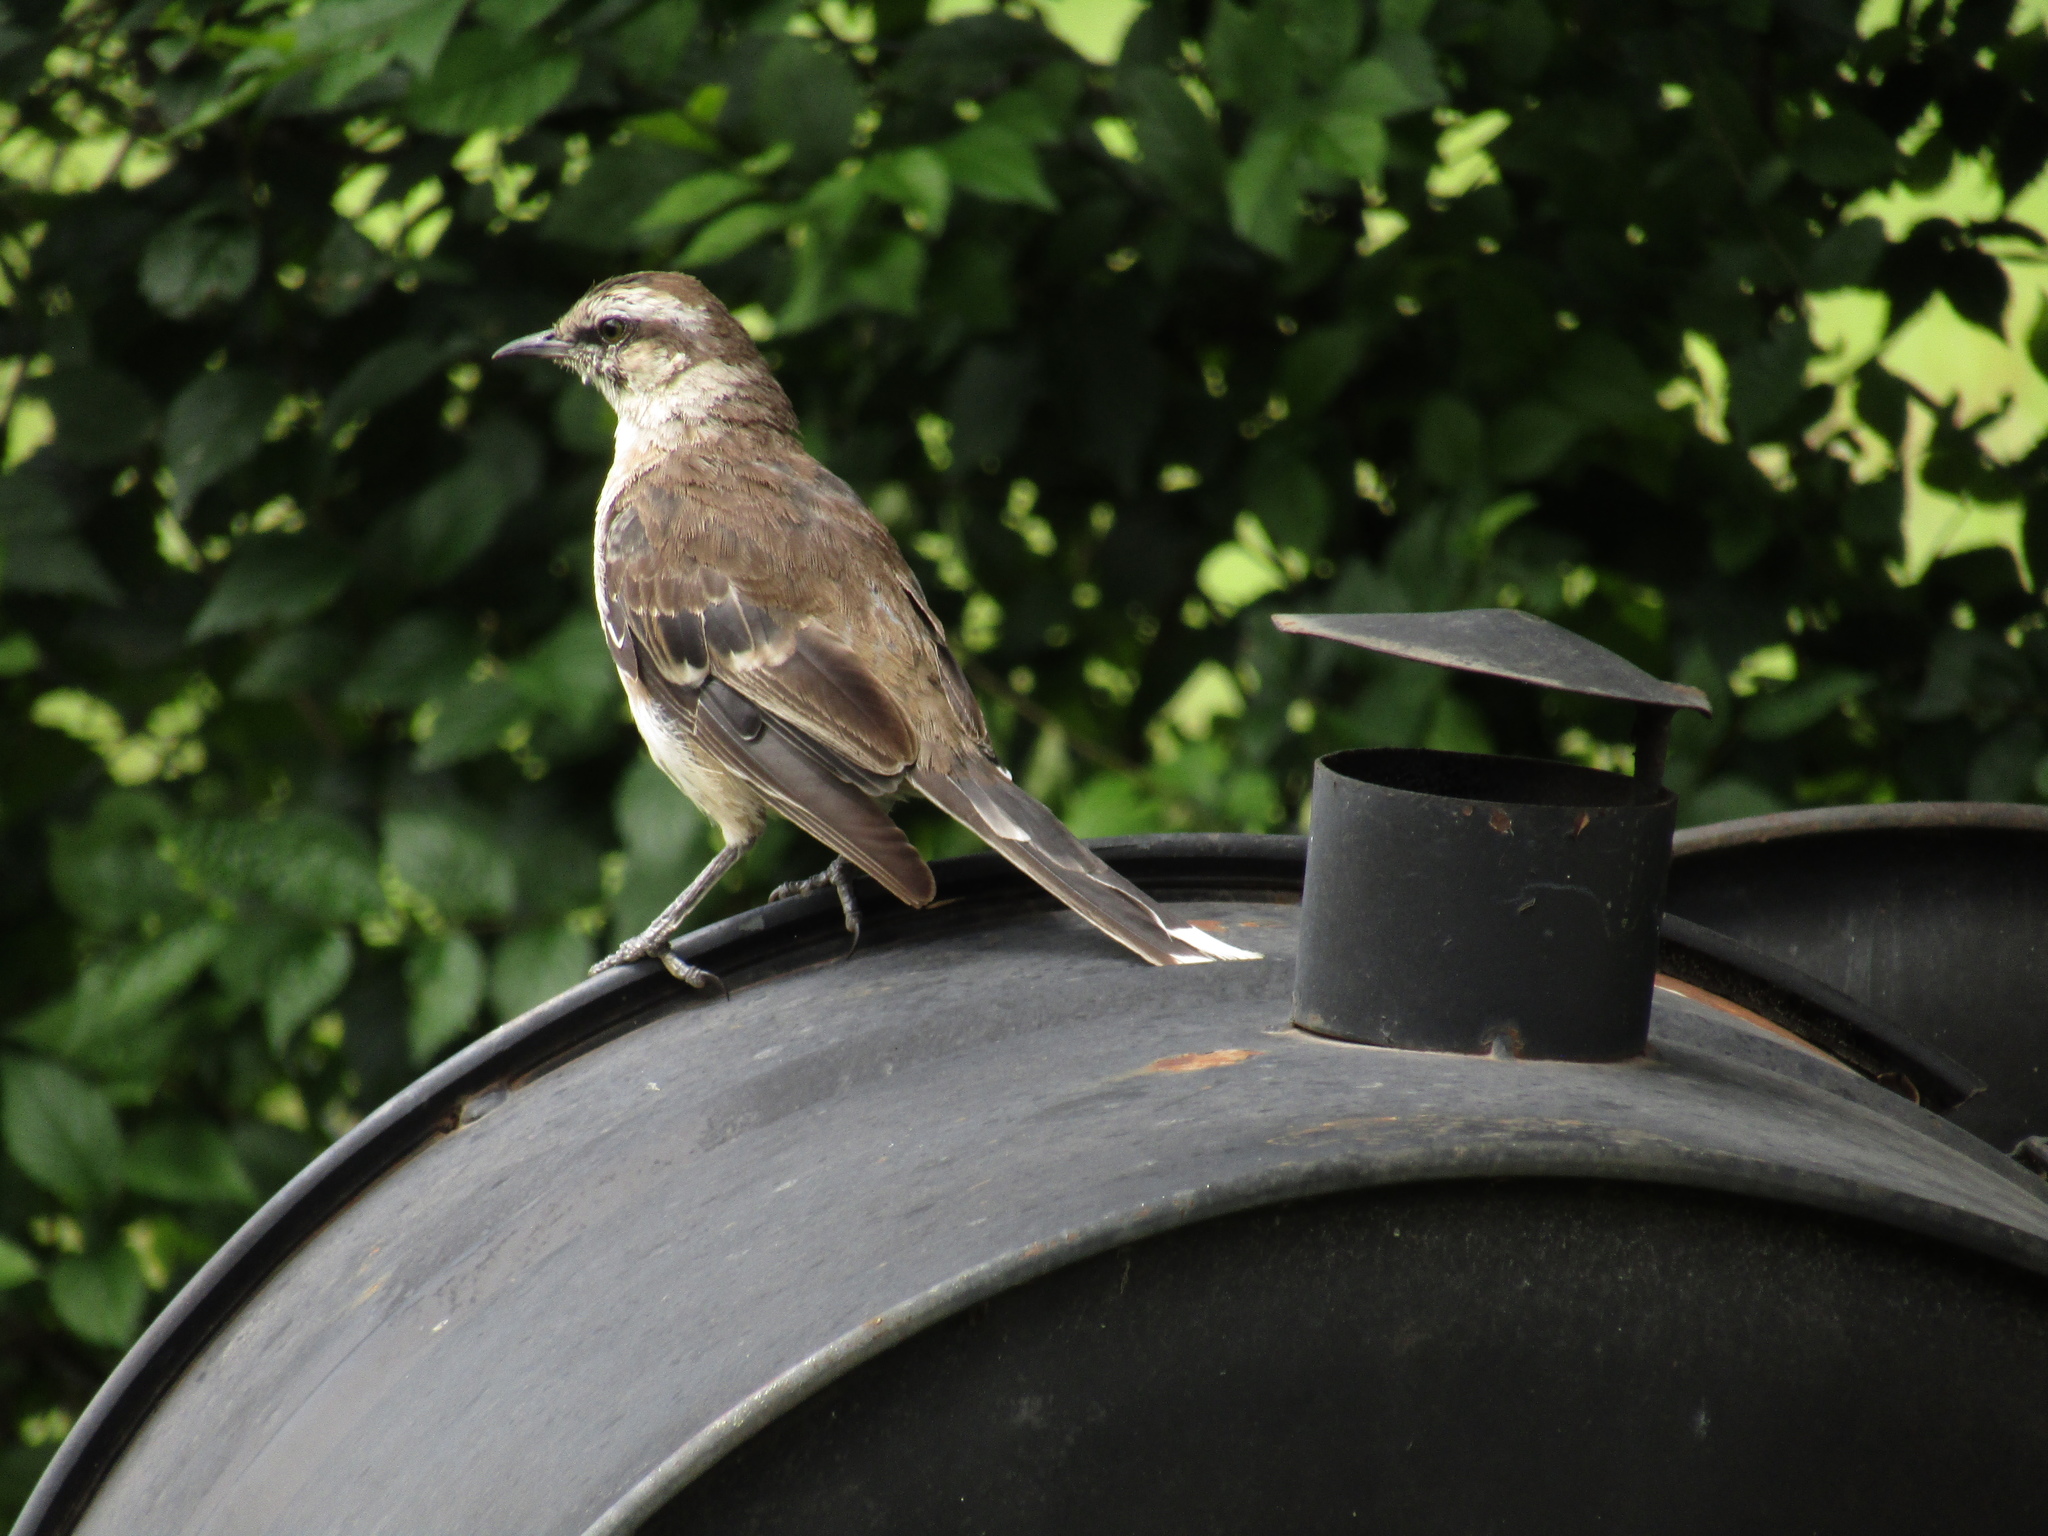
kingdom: Animalia
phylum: Chordata
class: Aves
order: Passeriformes
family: Mimidae
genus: Mimus
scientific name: Mimus saturninus
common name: Chalk-browed mockingbird
